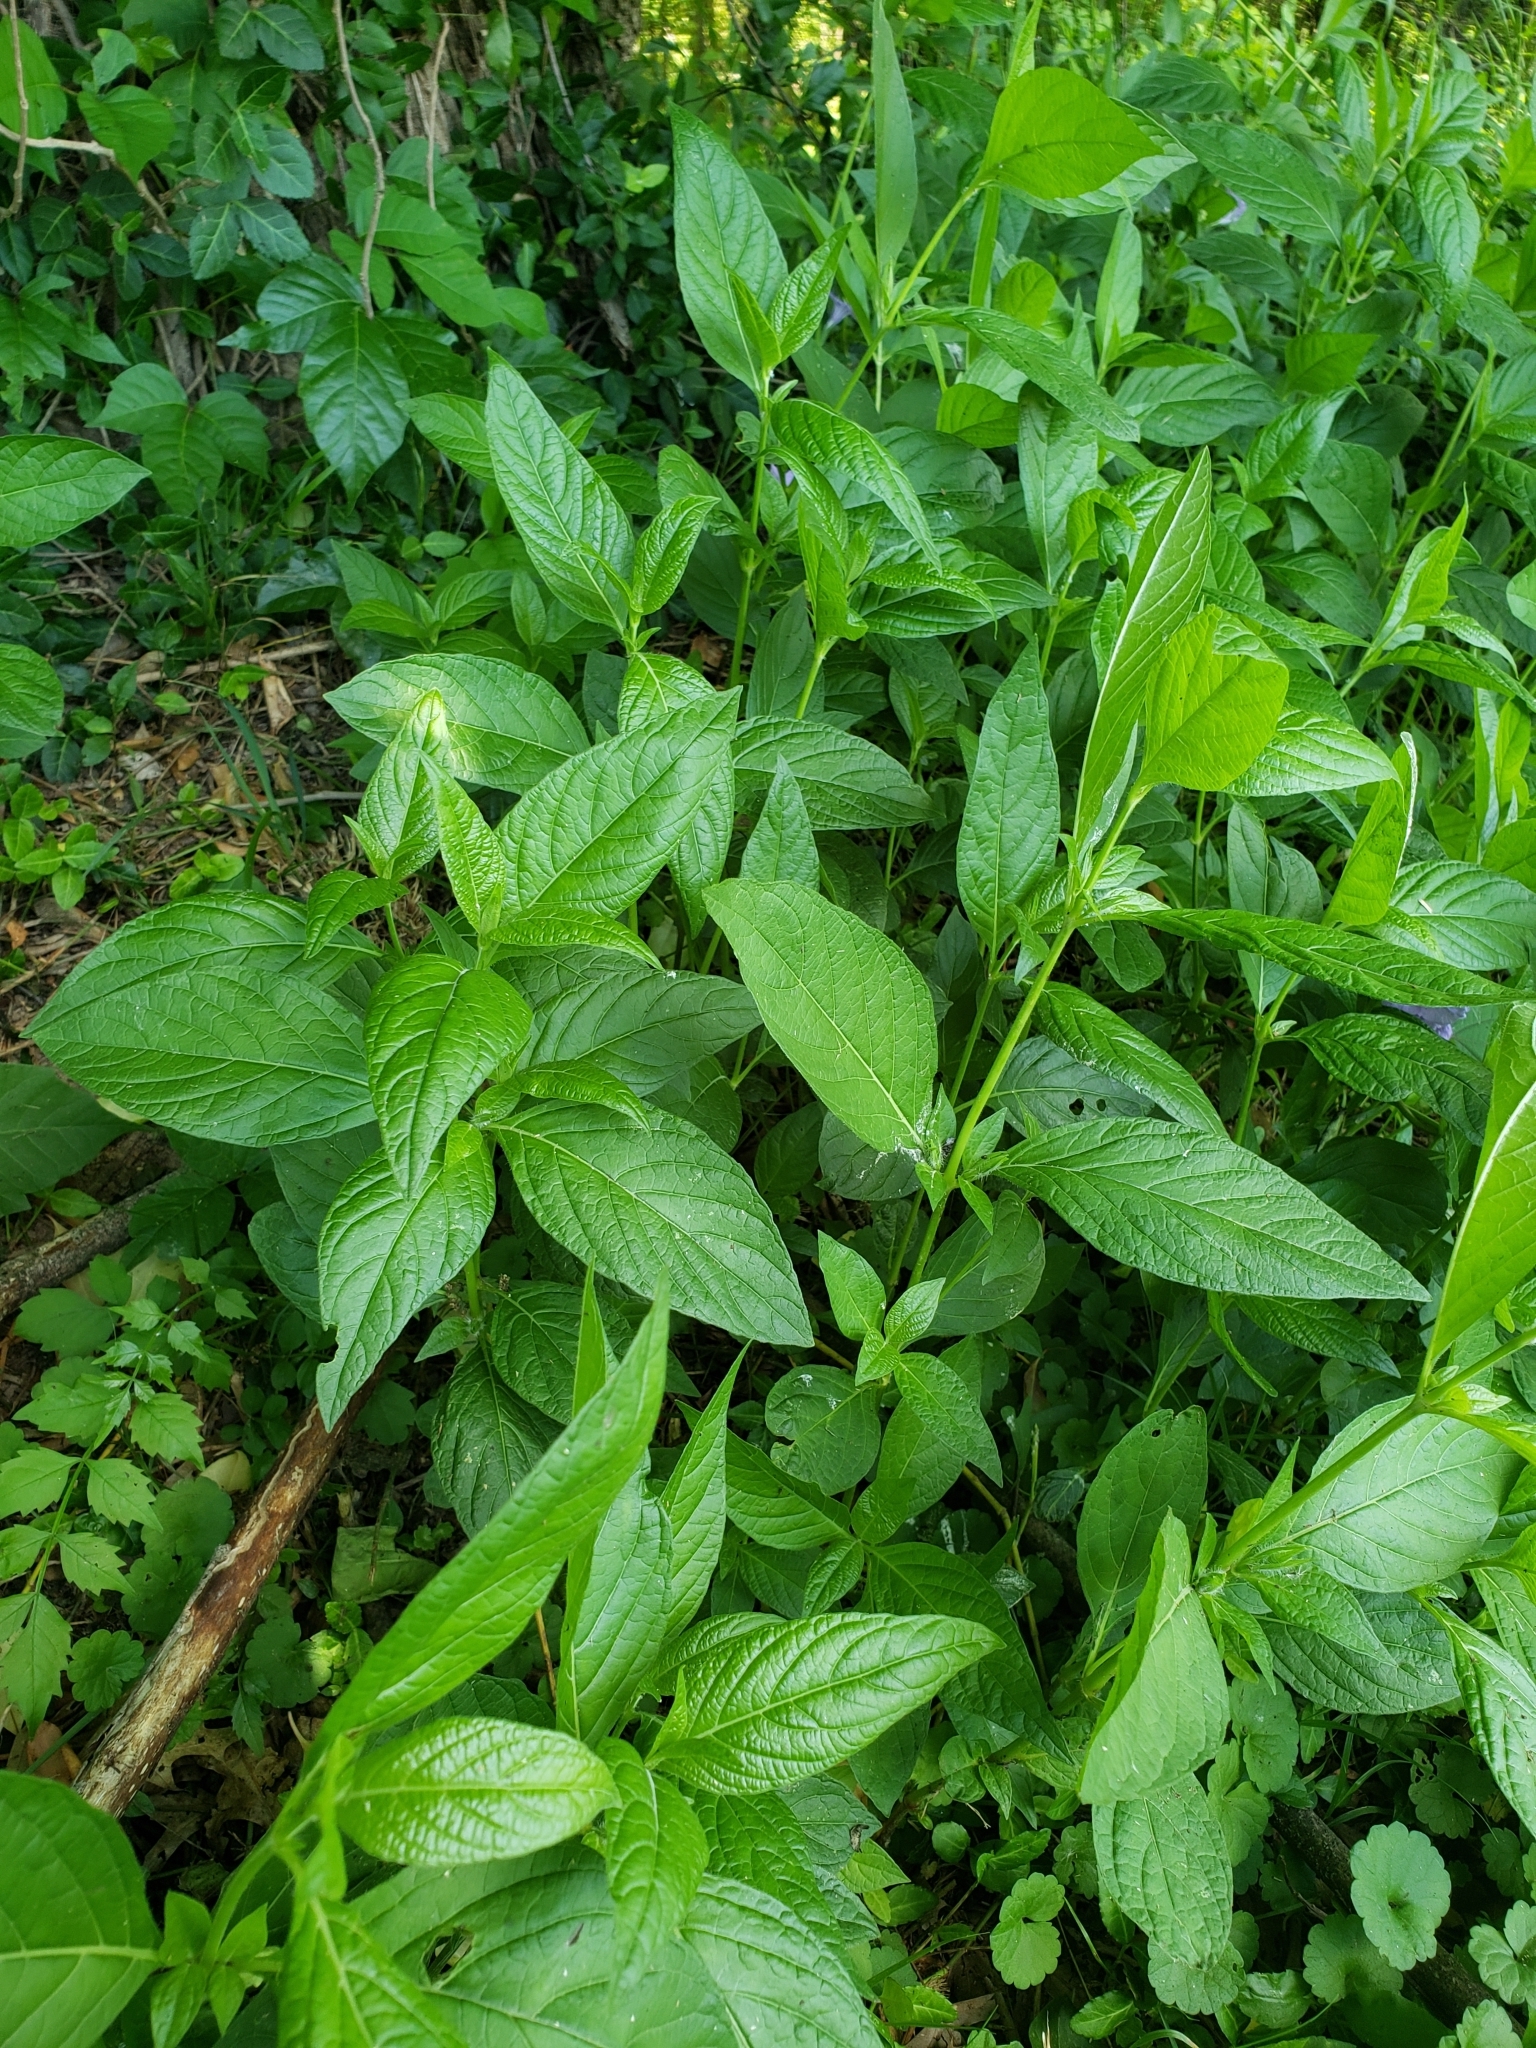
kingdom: Plantae
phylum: Tracheophyta
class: Magnoliopsida
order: Lamiales
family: Acanthaceae
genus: Ruellia
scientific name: Ruellia strepens
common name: Limestone wild petunia
